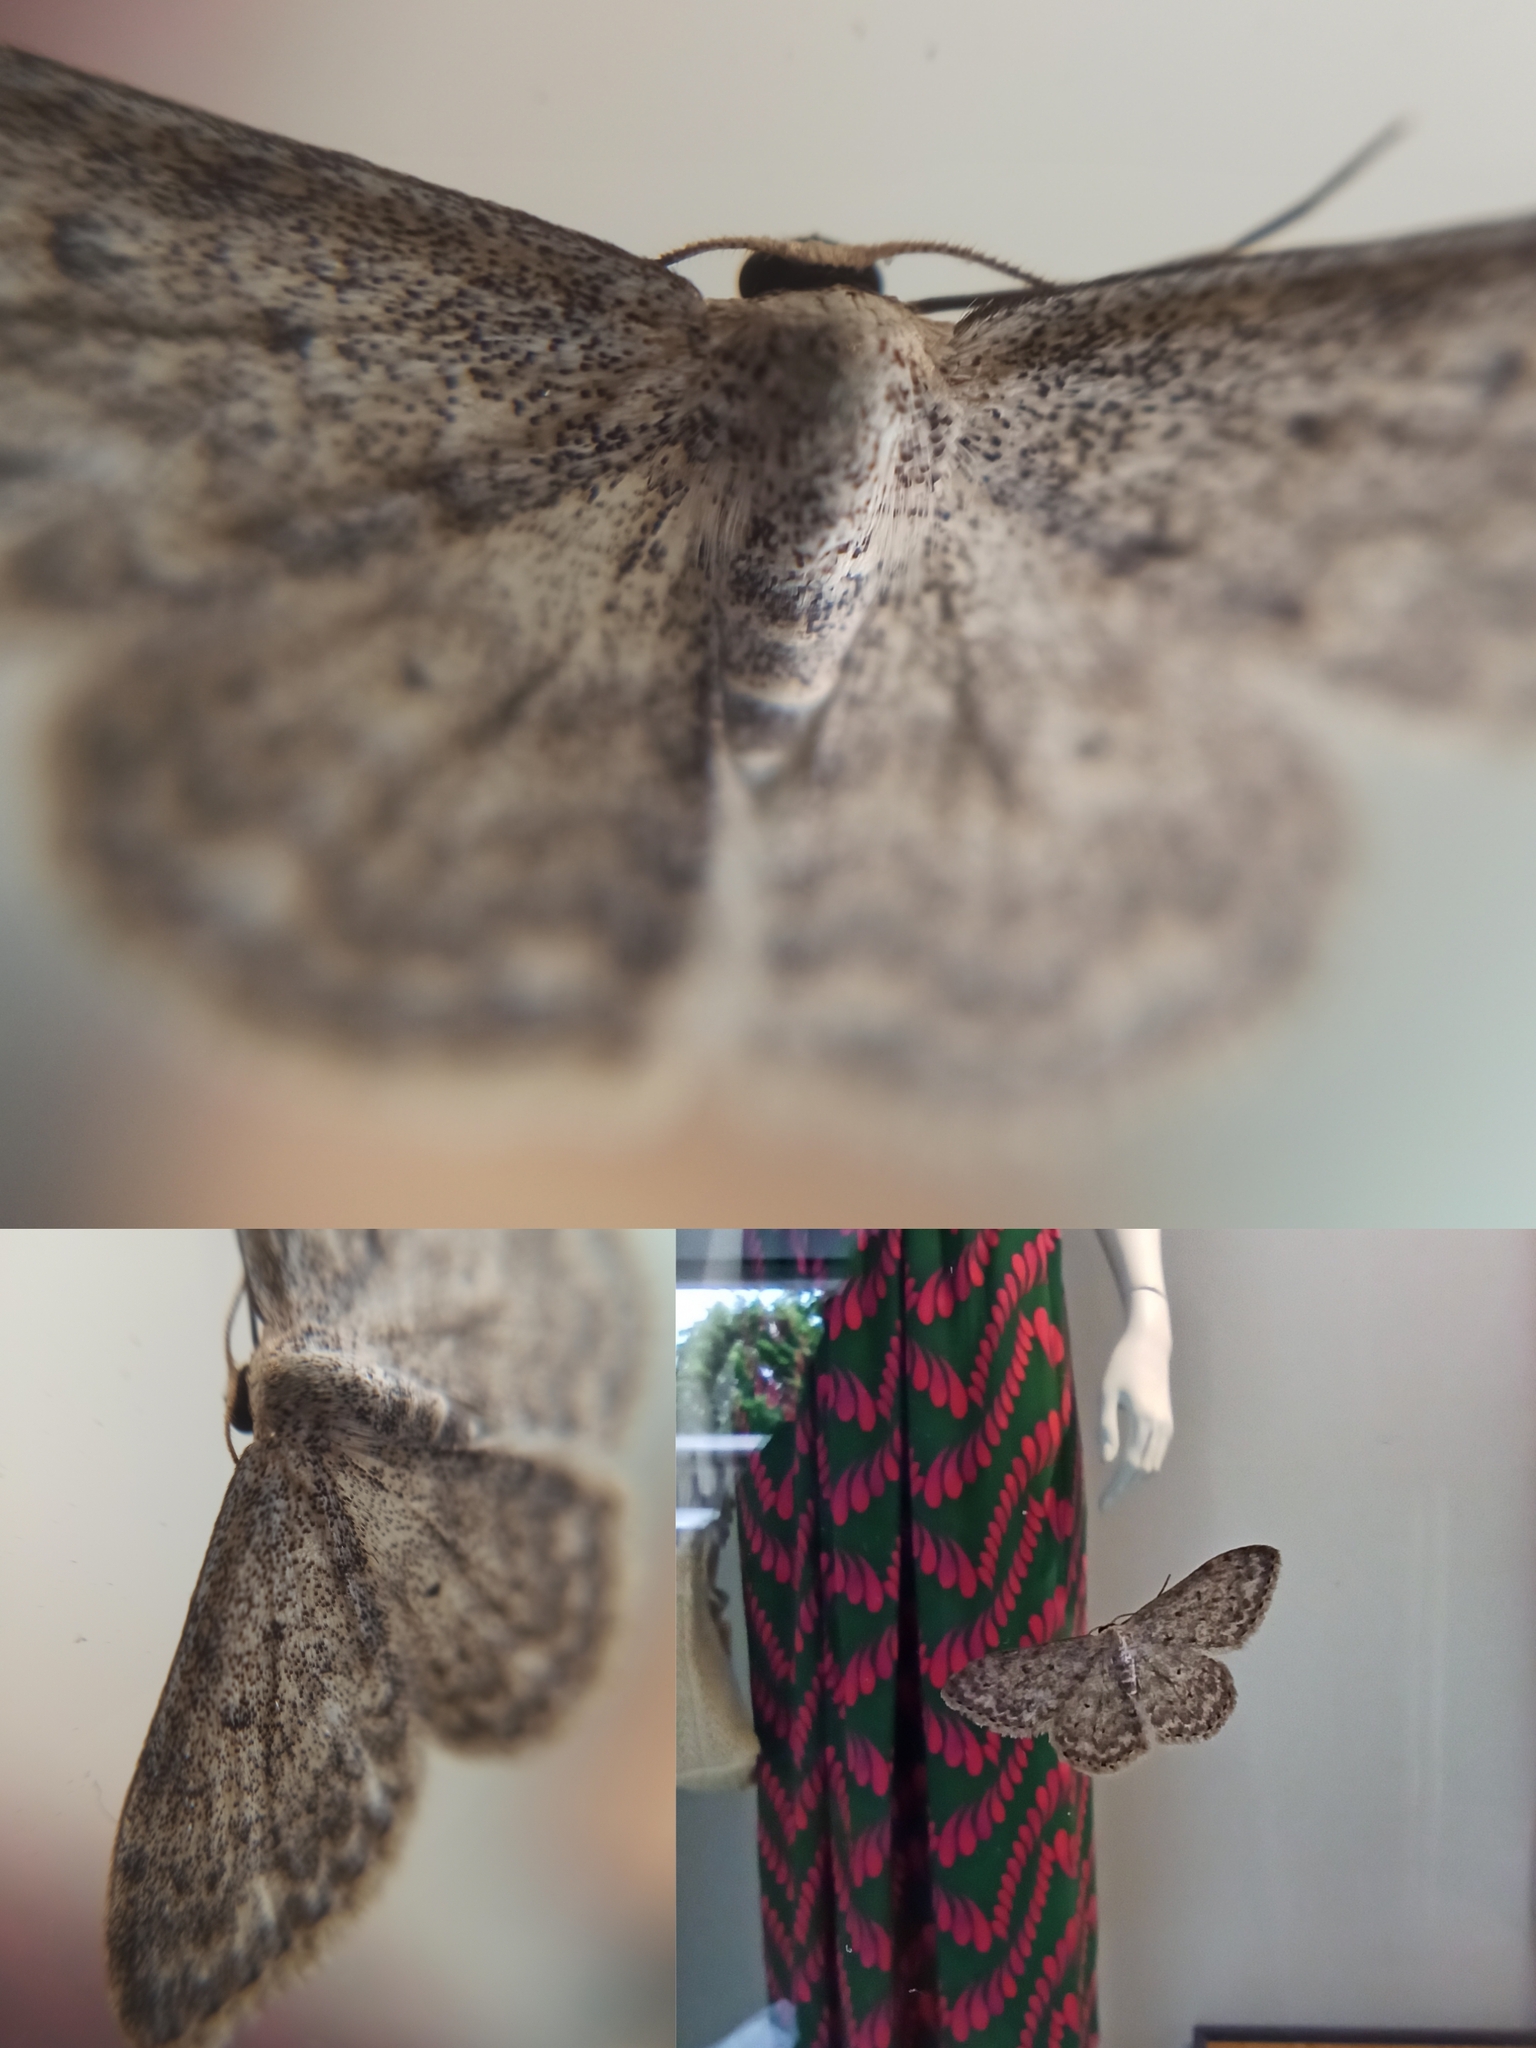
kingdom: Animalia
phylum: Arthropoda
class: Insecta
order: Lepidoptera
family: Geometridae
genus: Idaea
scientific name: Idaea seriata
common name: Small dusty wave
